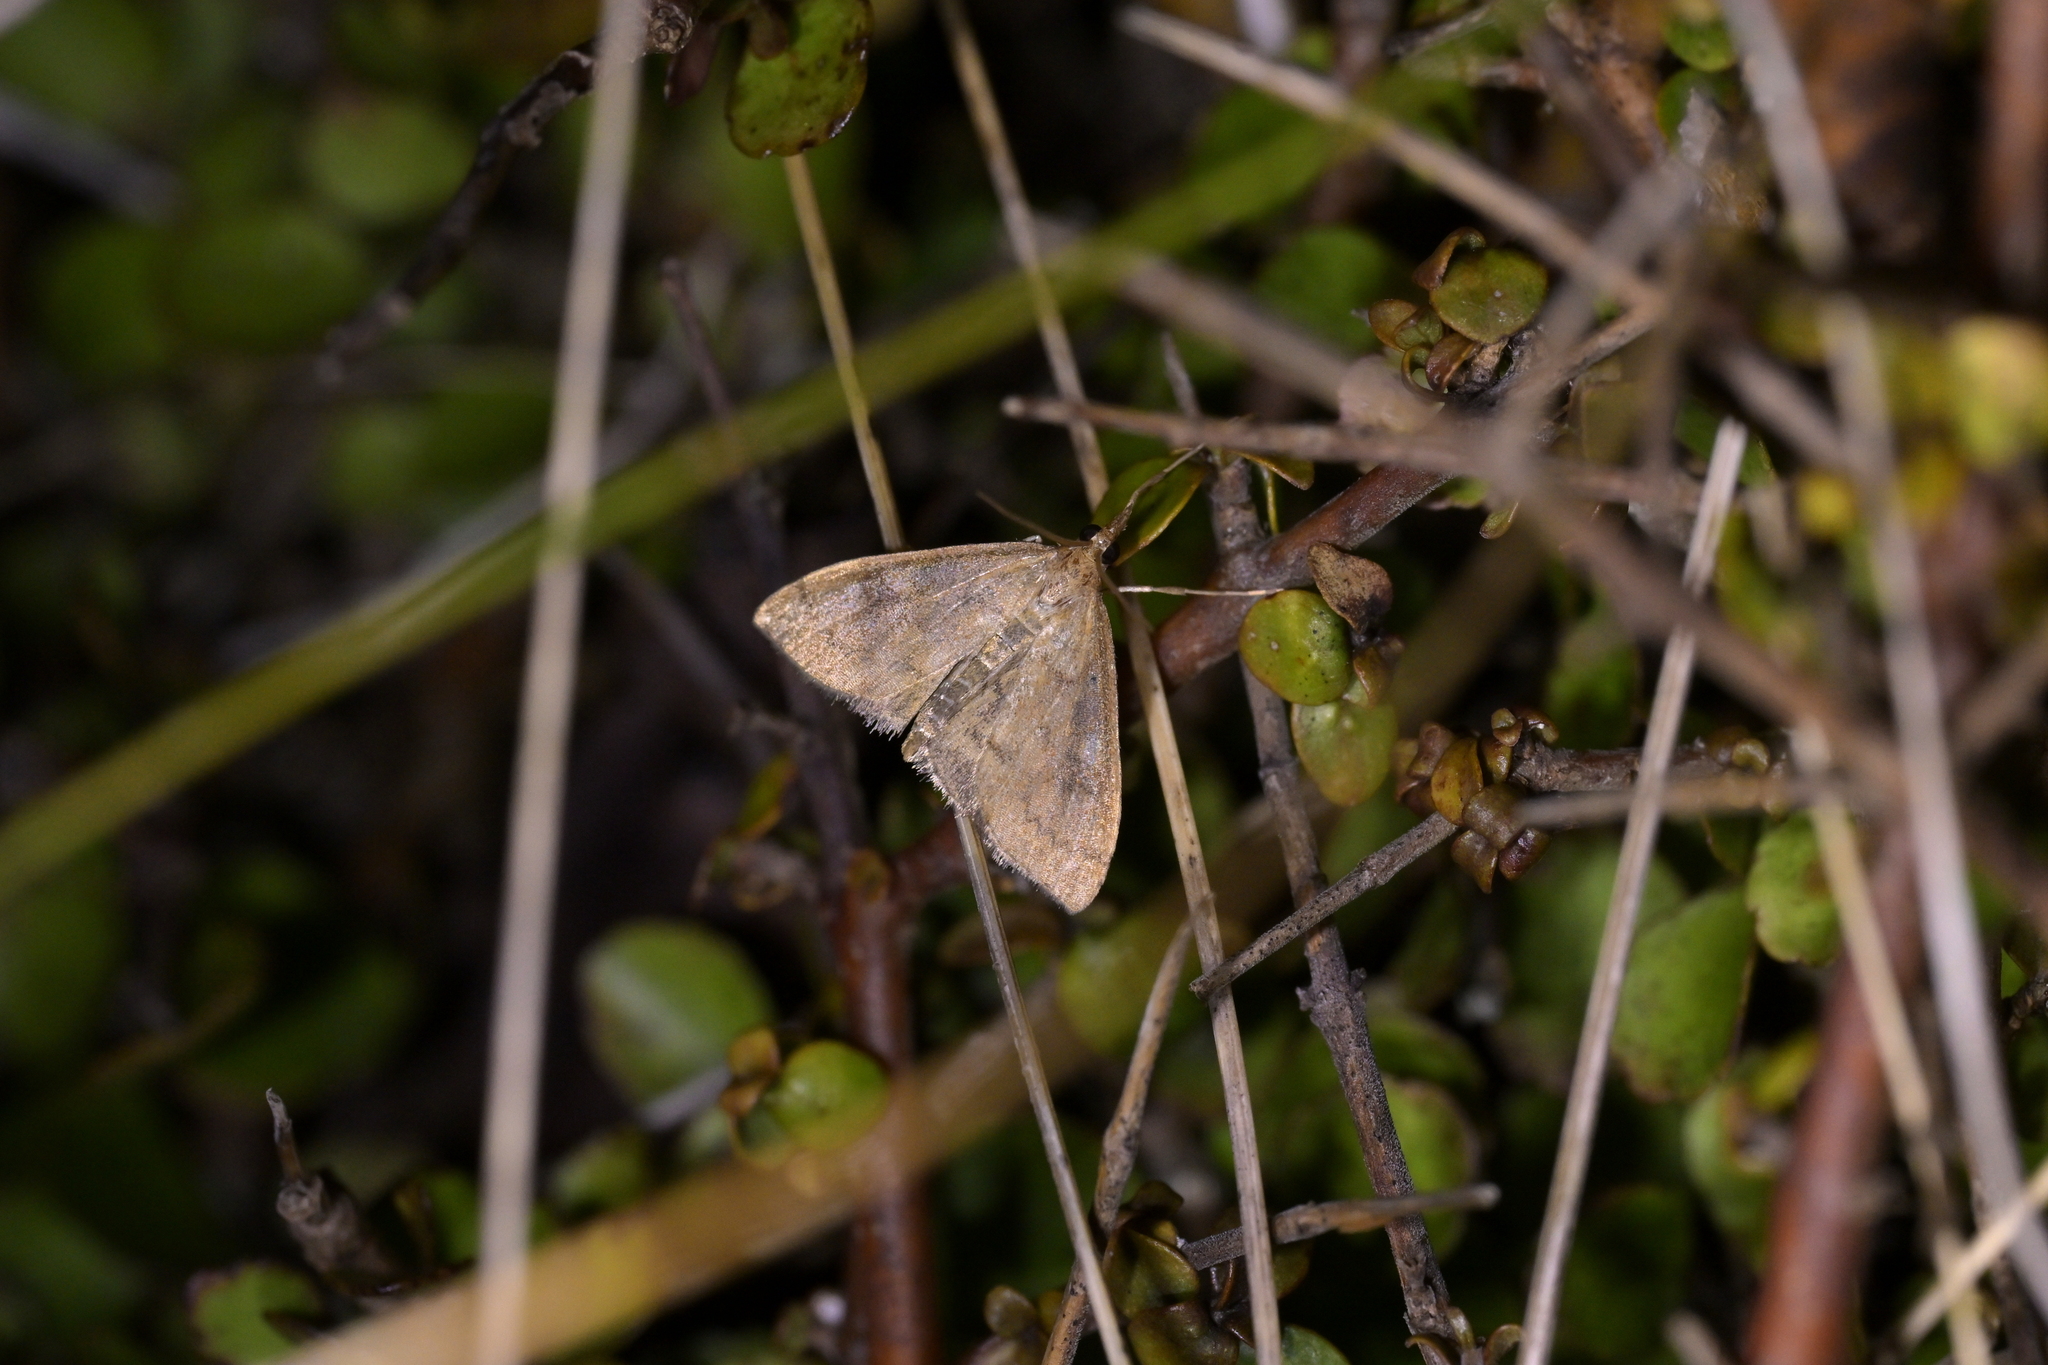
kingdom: Animalia
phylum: Arthropoda
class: Insecta
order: Lepidoptera
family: Crambidae
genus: Udea
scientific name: Udea Mnesictena flavidalis
